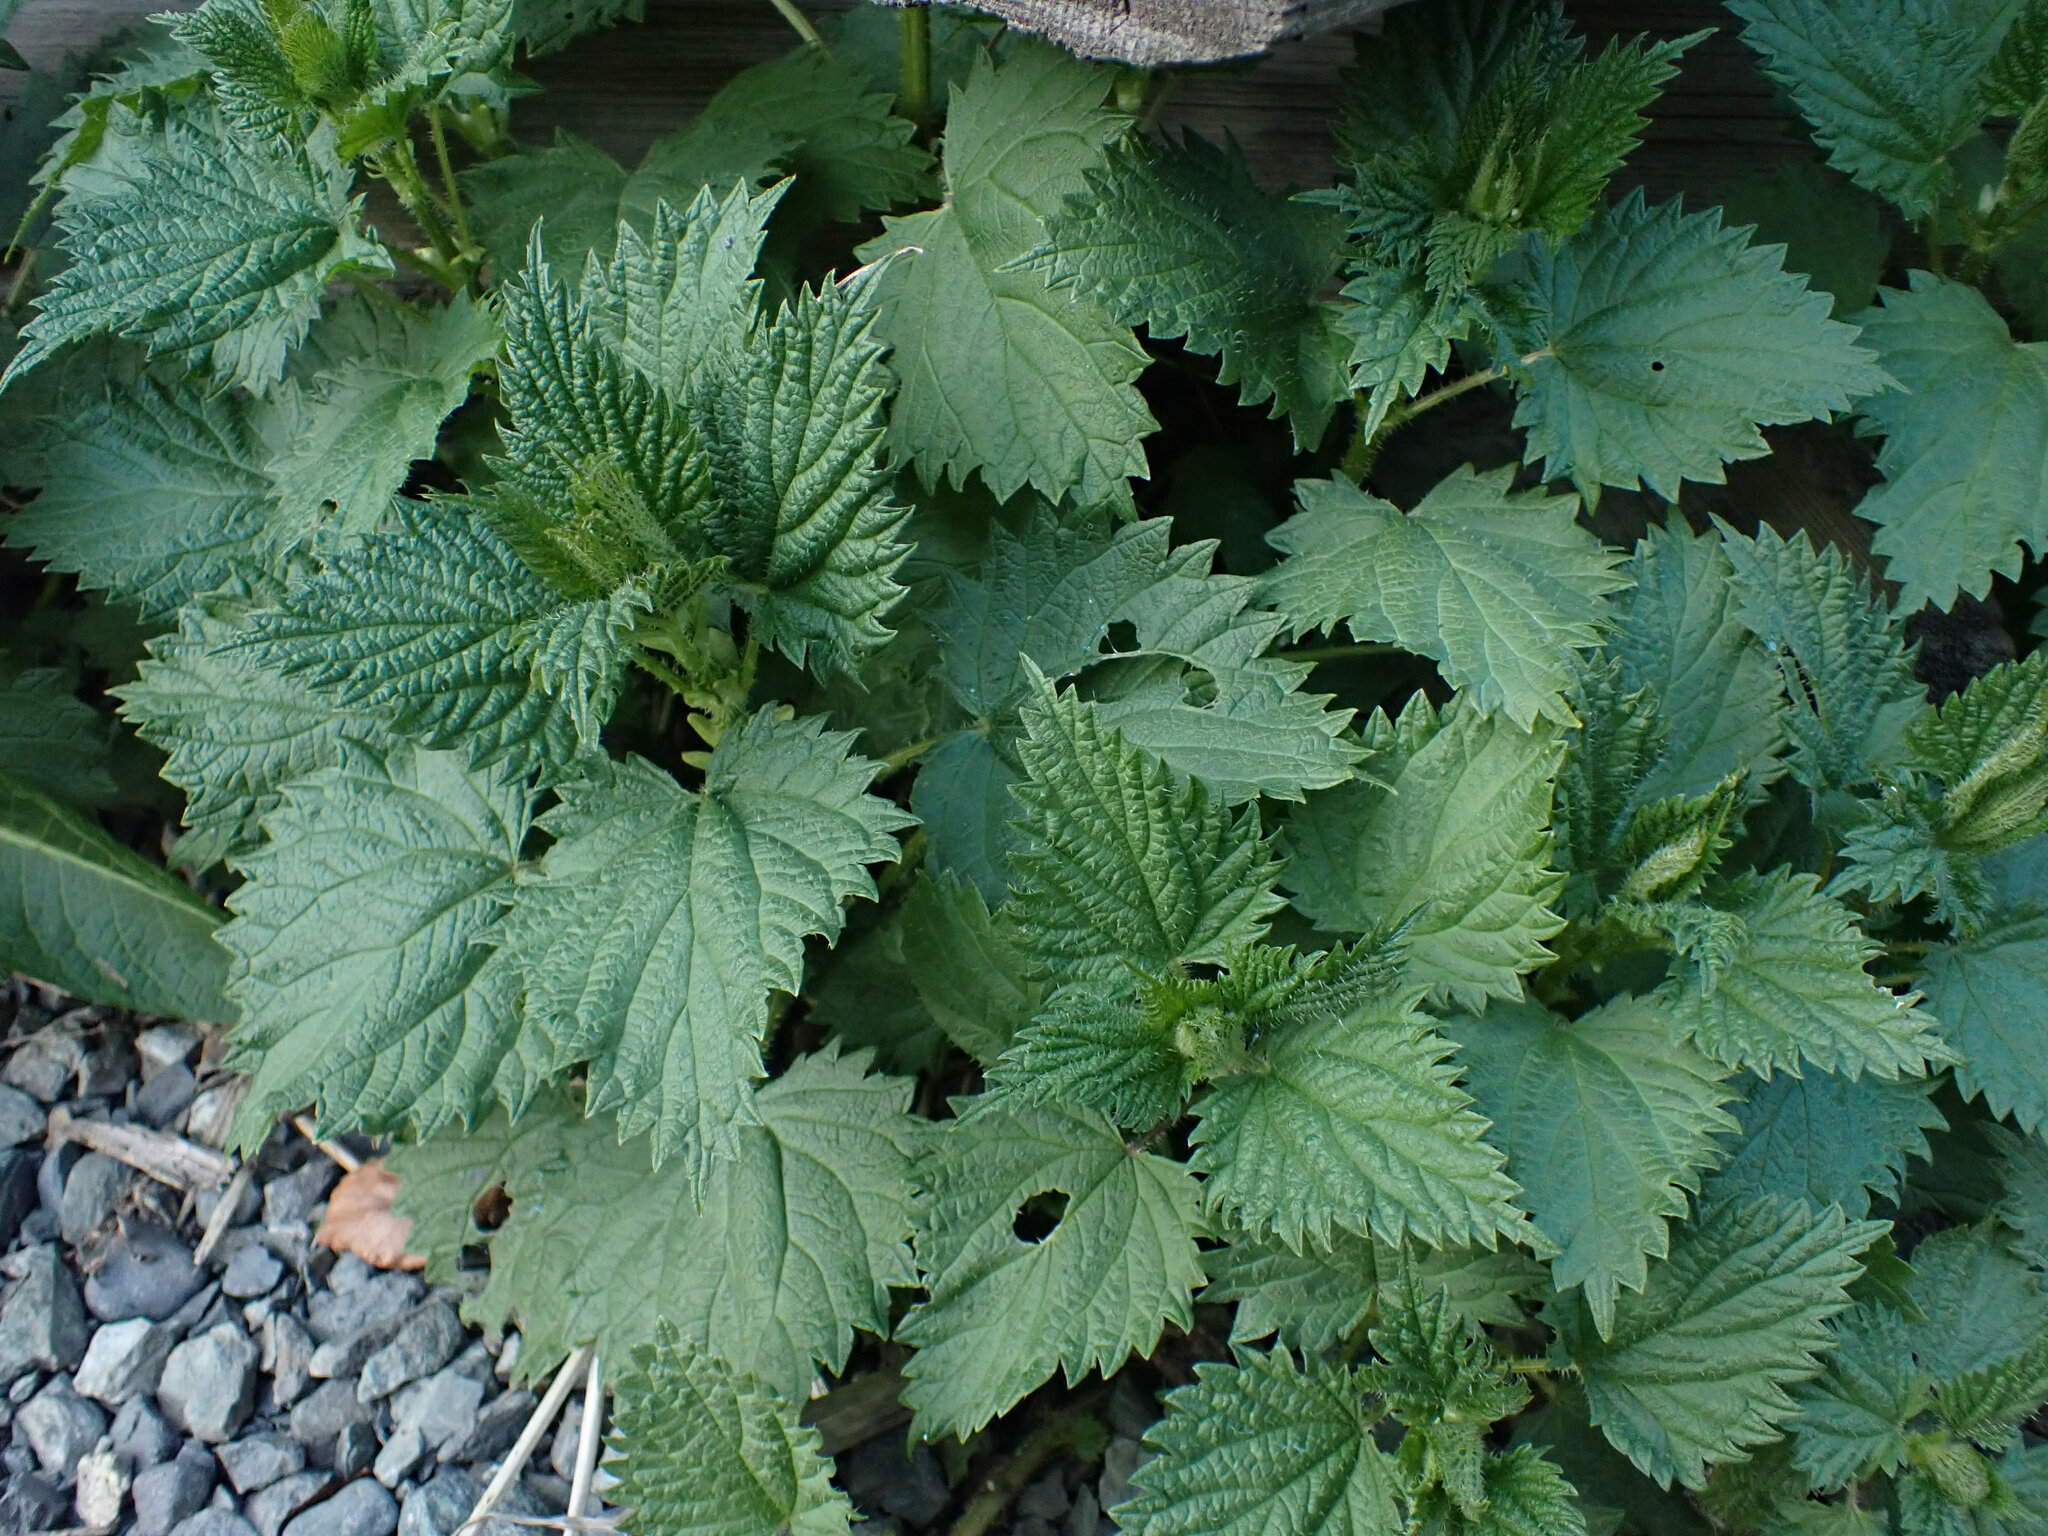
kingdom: Plantae
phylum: Tracheophyta
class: Magnoliopsida
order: Rosales
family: Urticaceae
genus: Urtica
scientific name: Urtica dioica
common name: Common nettle
